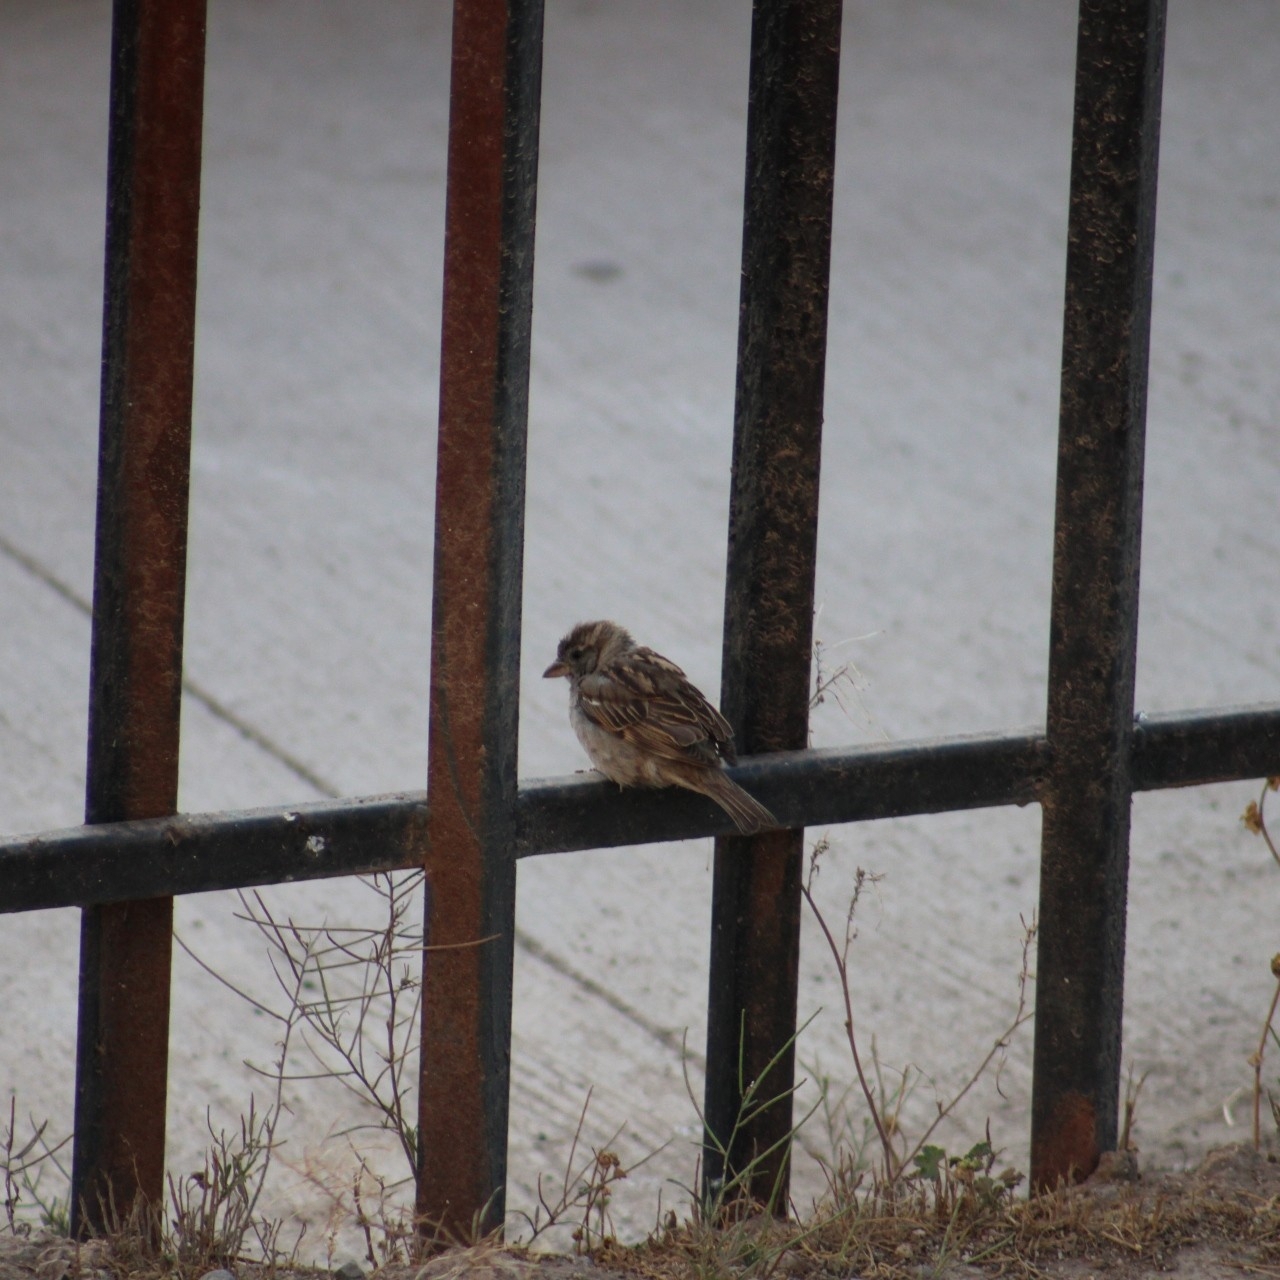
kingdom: Animalia
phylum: Chordata
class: Aves
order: Passeriformes
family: Passeridae
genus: Passer
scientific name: Passer domesticus
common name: House sparrow
